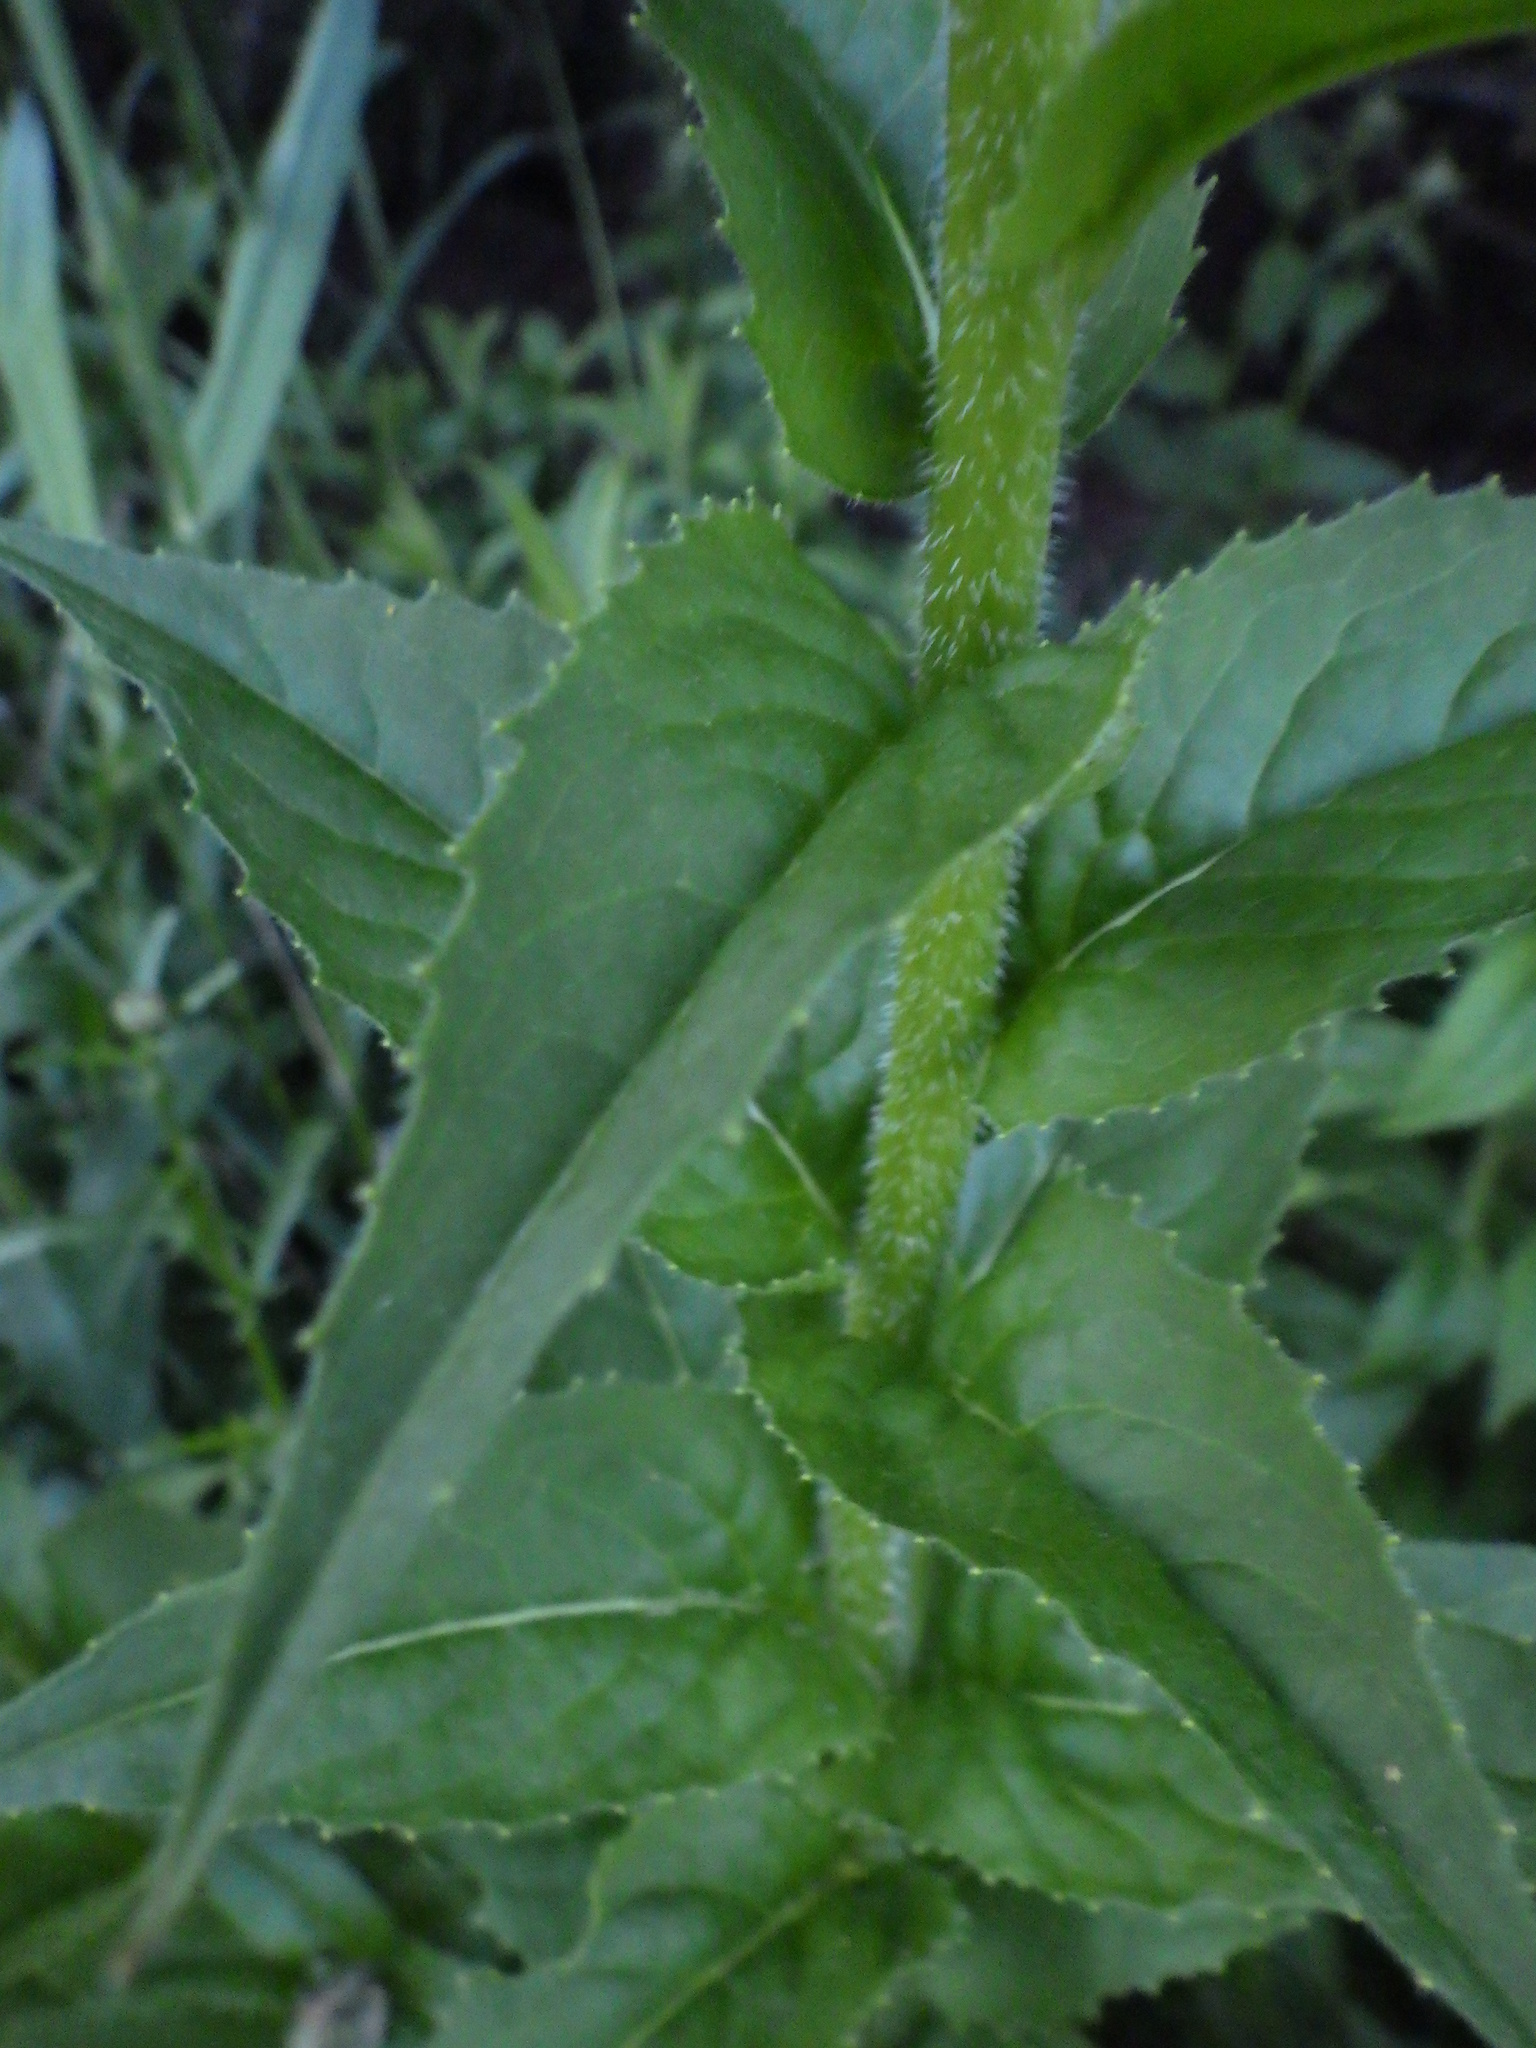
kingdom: Plantae
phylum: Tracheophyta
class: Magnoliopsida
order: Brassicales
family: Brassicaceae
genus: Hesperis
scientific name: Hesperis matronalis
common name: Dame's-violet
